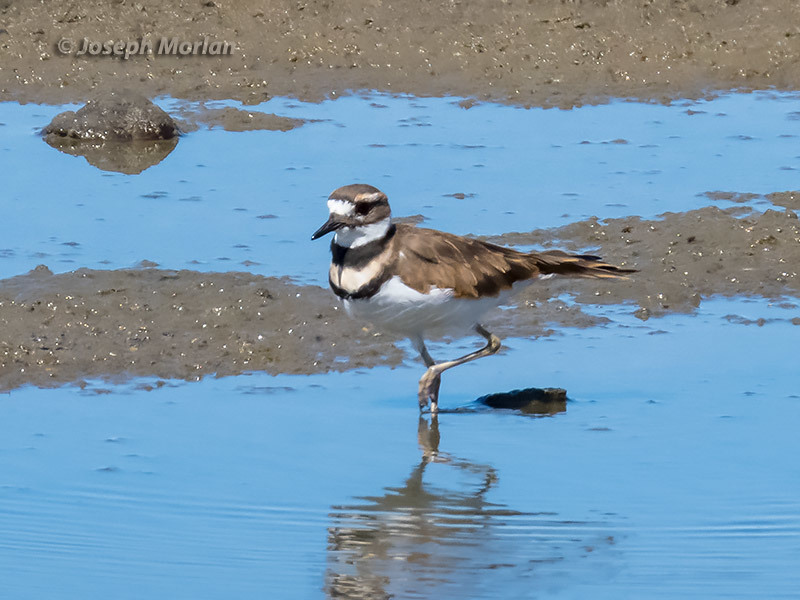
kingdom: Animalia
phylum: Chordata
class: Aves
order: Charadriiformes
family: Charadriidae
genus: Charadrius
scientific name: Charadrius vociferus
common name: Killdeer
